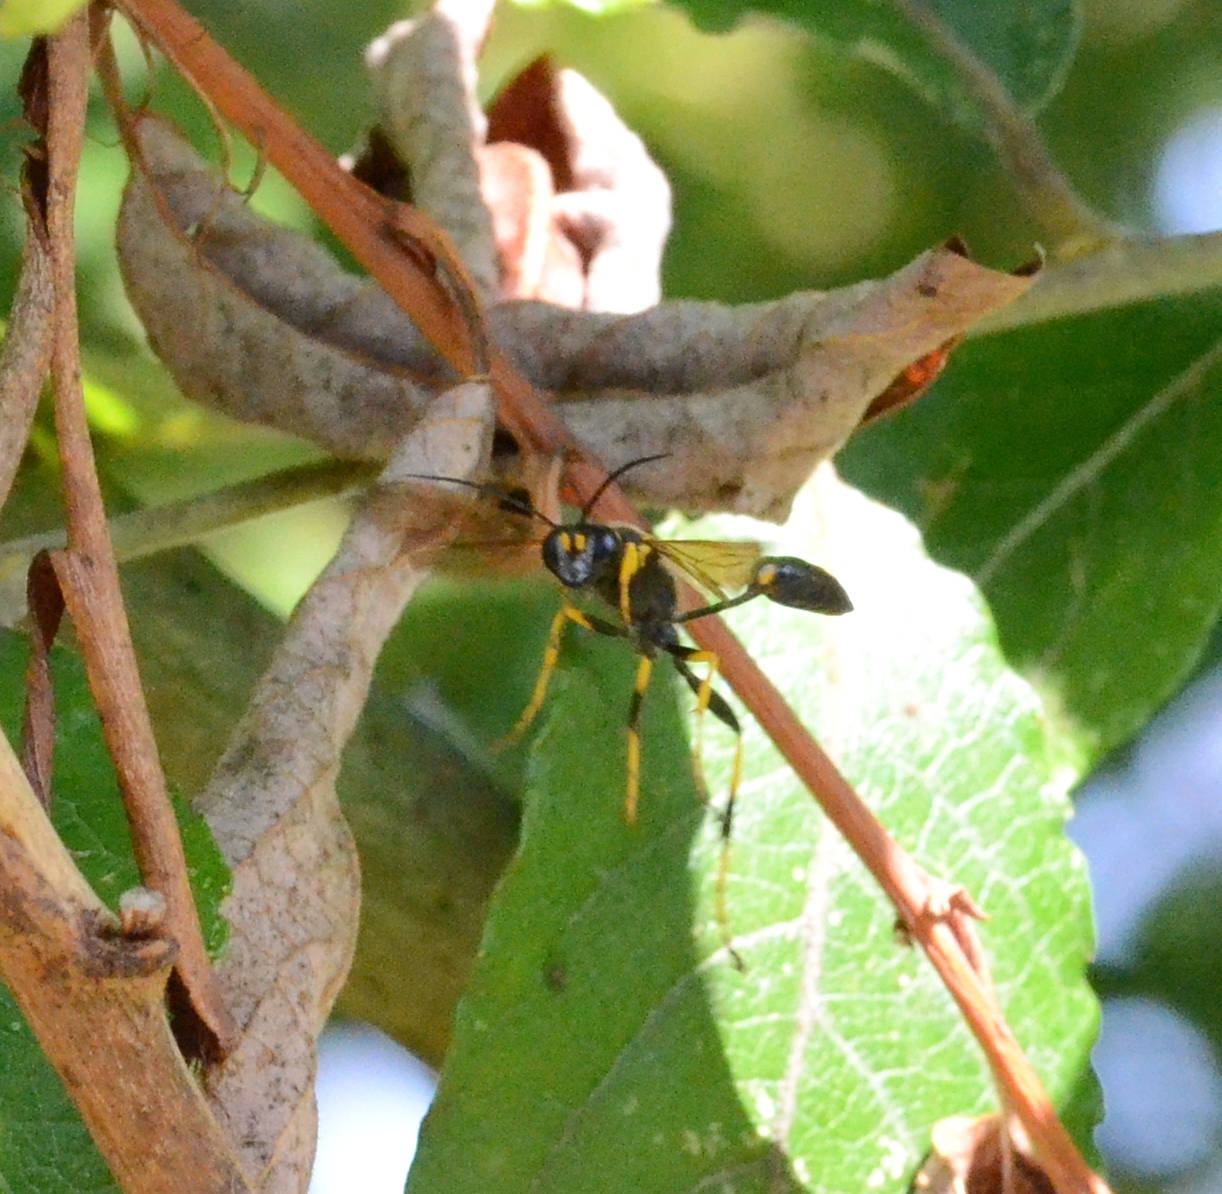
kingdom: Animalia
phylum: Arthropoda
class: Insecta
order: Hymenoptera
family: Sphecidae
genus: Sceliphron
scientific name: Sceliphron caementarium
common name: Mud dauber
